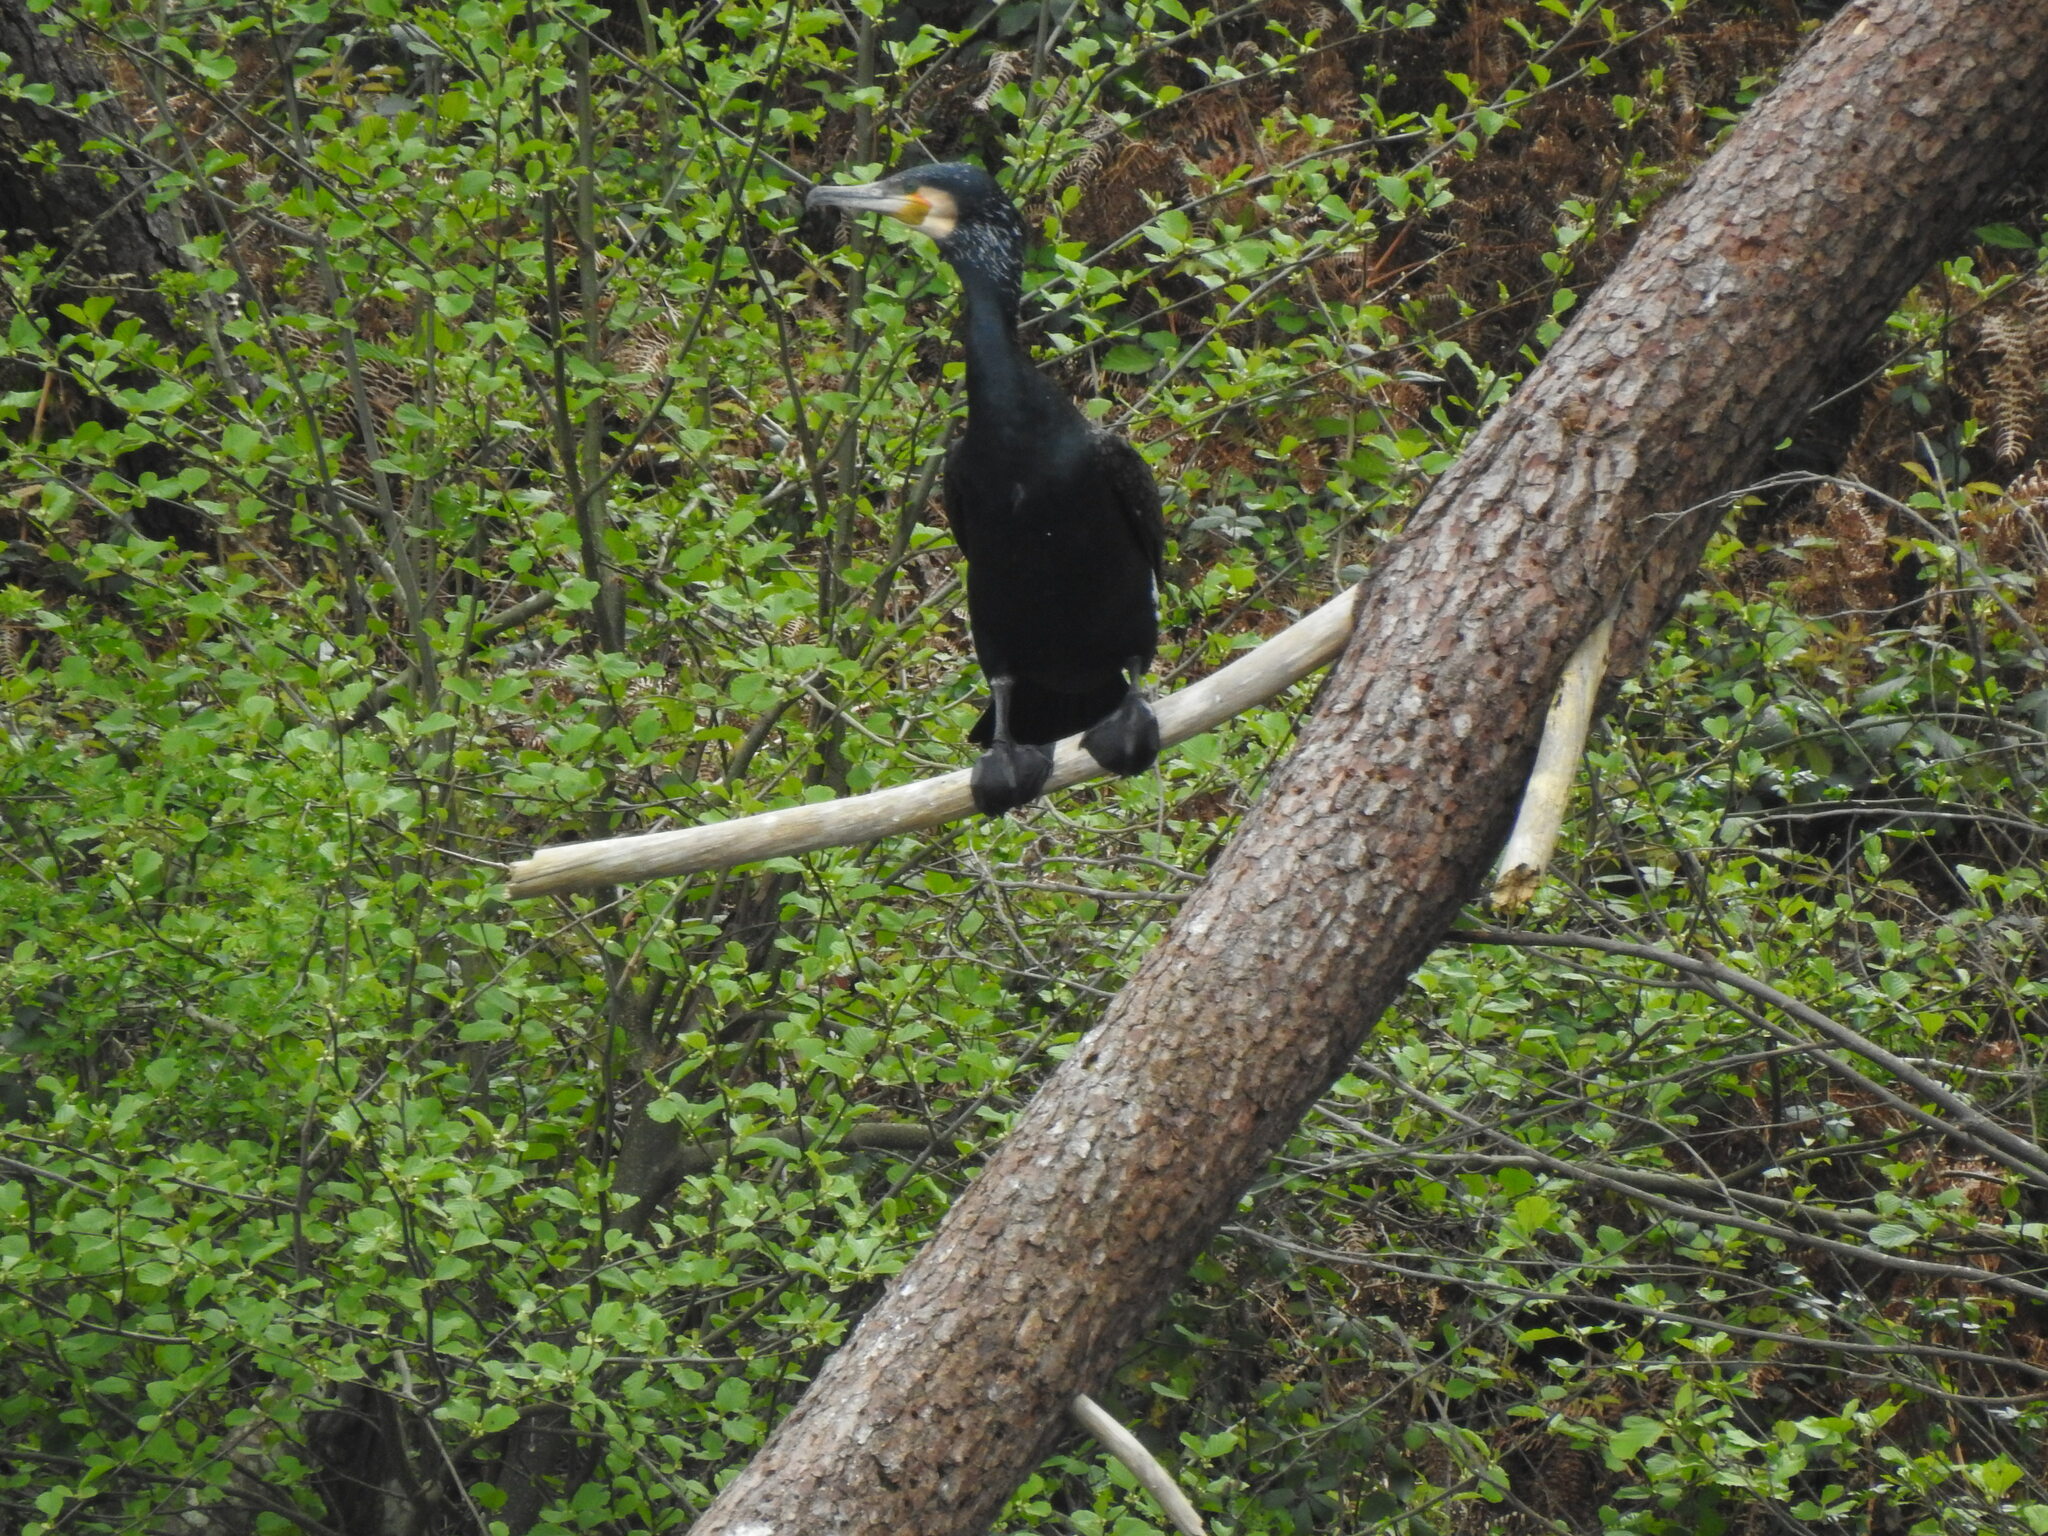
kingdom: Animalia
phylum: Chordata
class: Aves
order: Suliformes
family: Phalacrocoracidae
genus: Phalacrocorax
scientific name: Phalacrocorax carbo
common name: Great cormorant
